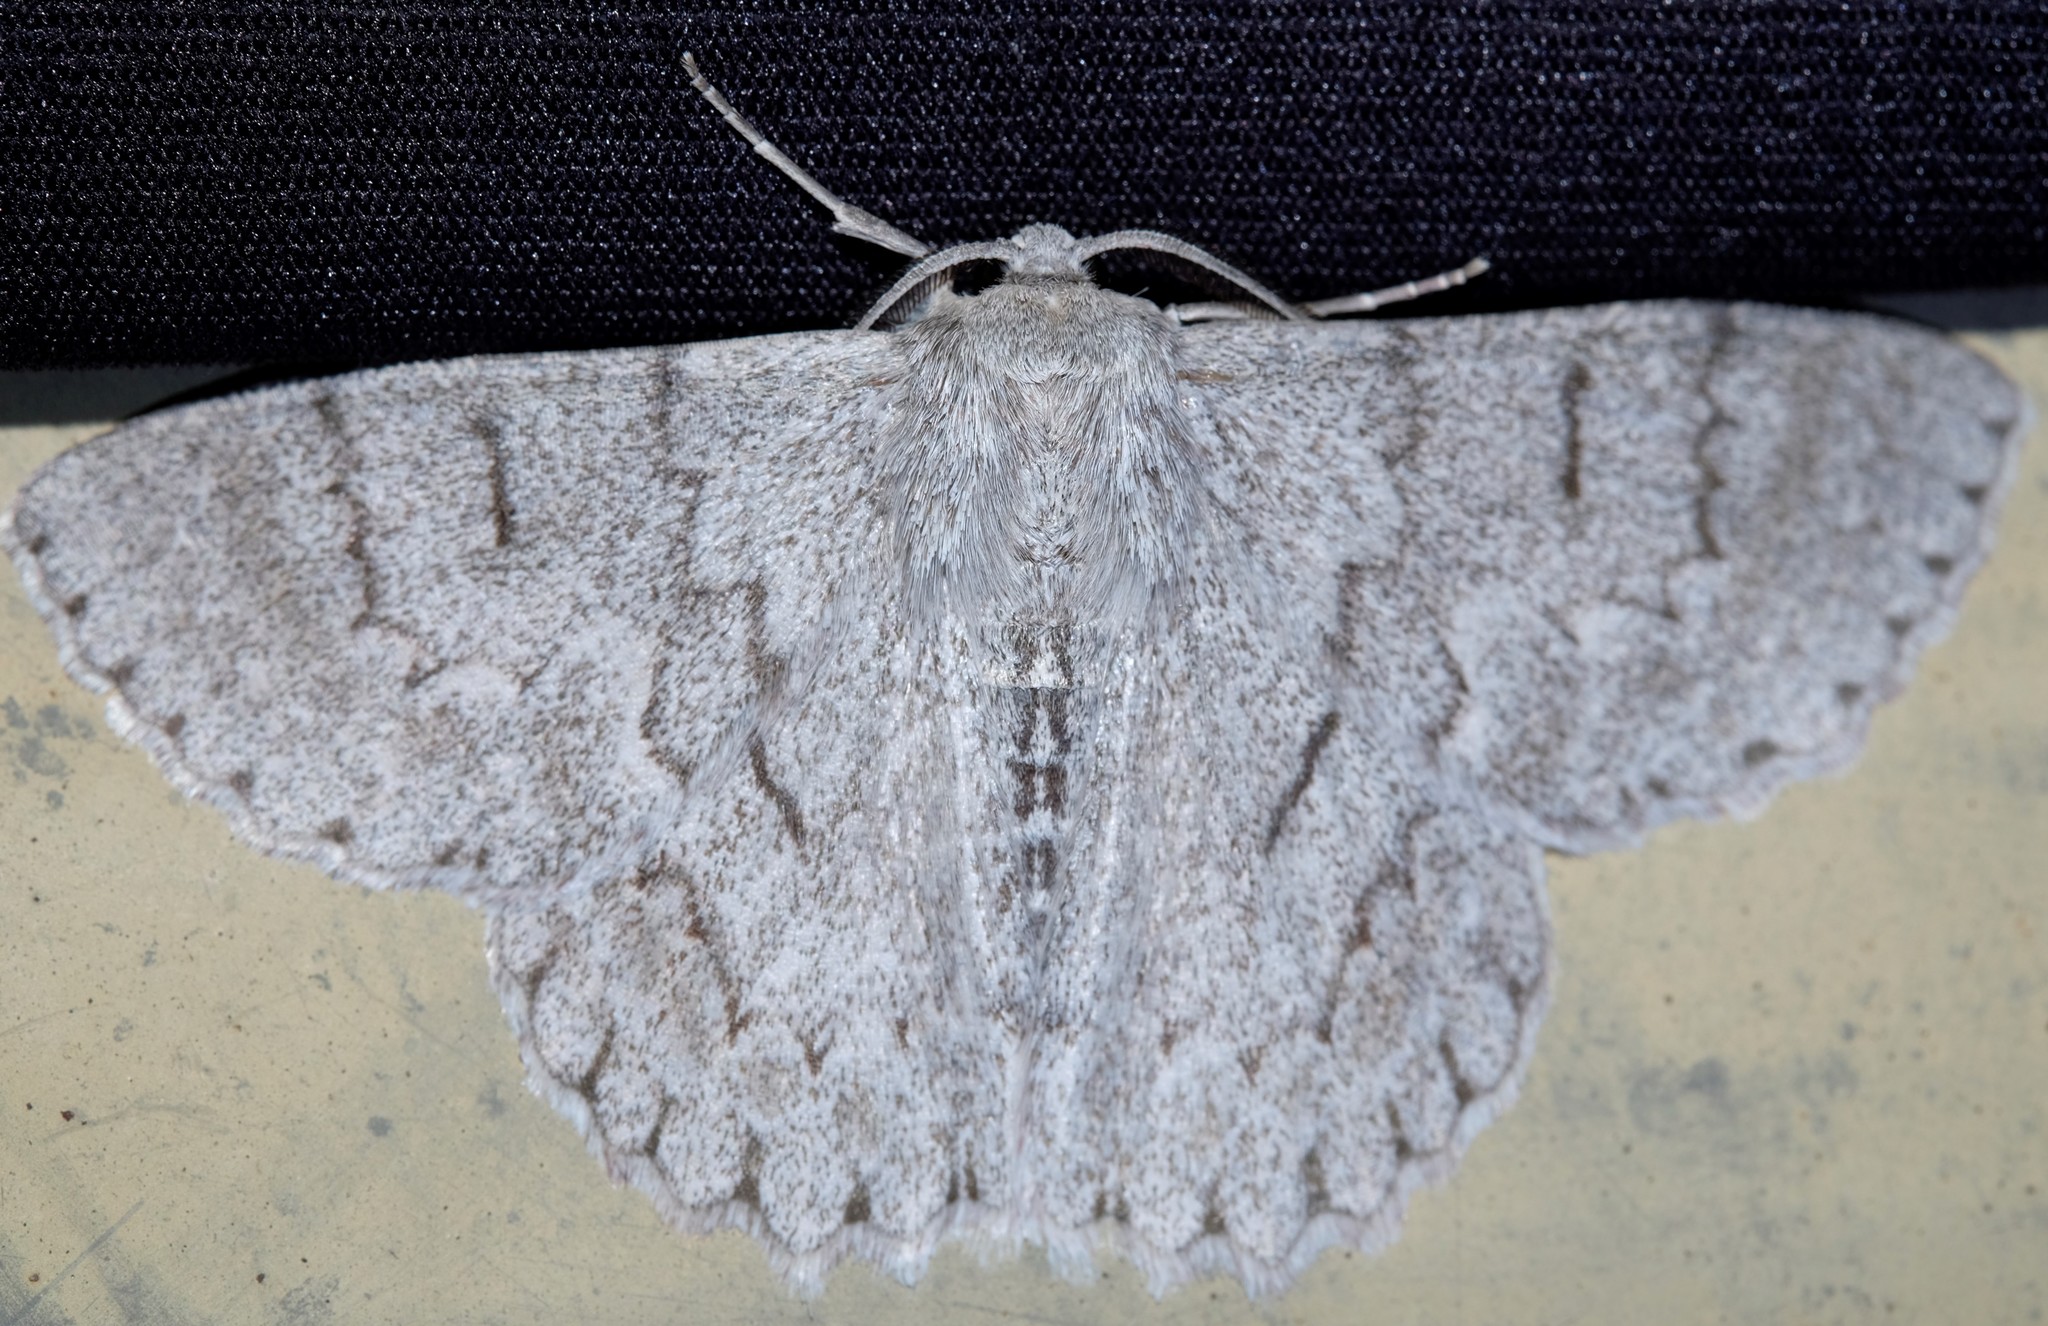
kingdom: Animalia
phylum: Arthropoda
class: Insecta
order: Lepidoptera
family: Geometridae
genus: Crypsiphona
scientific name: Crypsiphona ocultaria
